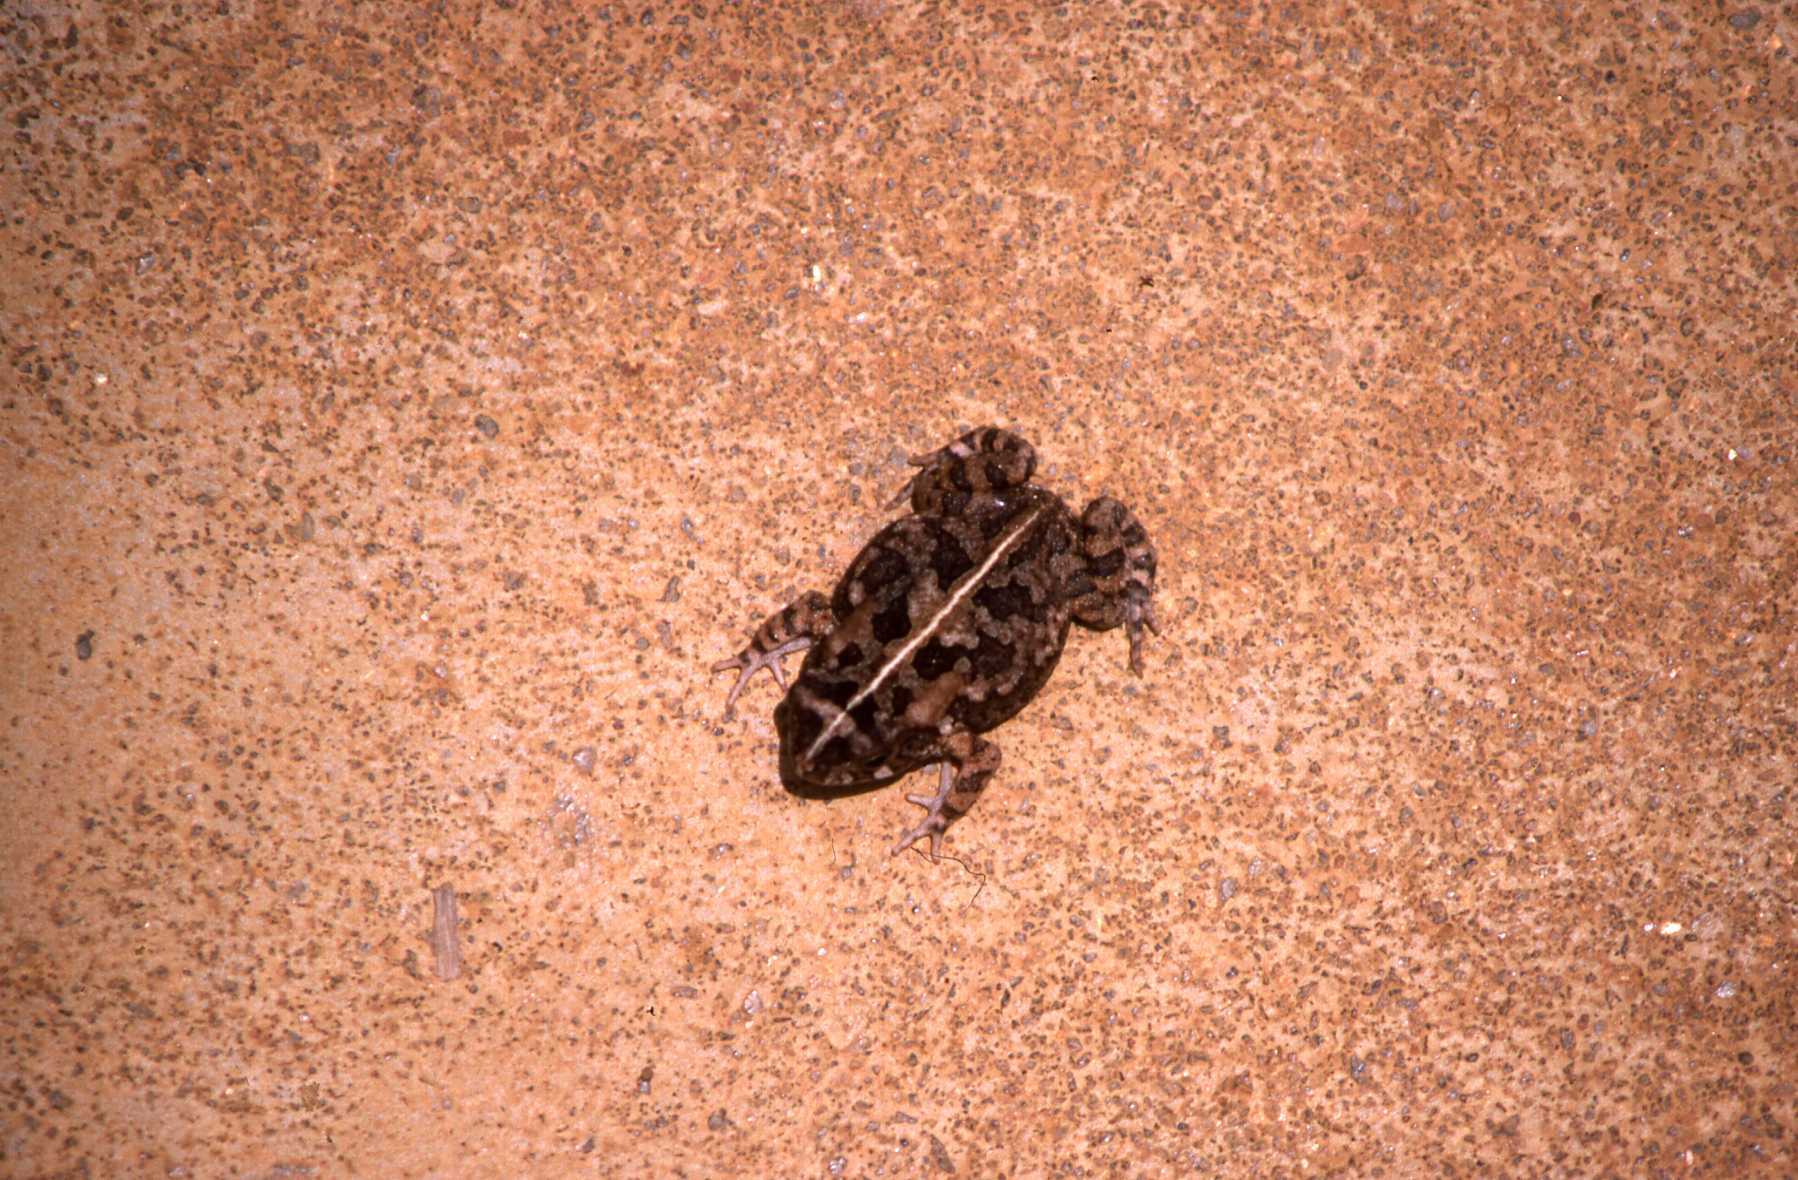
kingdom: Animalia
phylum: Chordata
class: Amphibia
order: Anura
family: Bufonidae
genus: Sclerophrys
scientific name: Sclerophrys gutturalis
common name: African common toad
